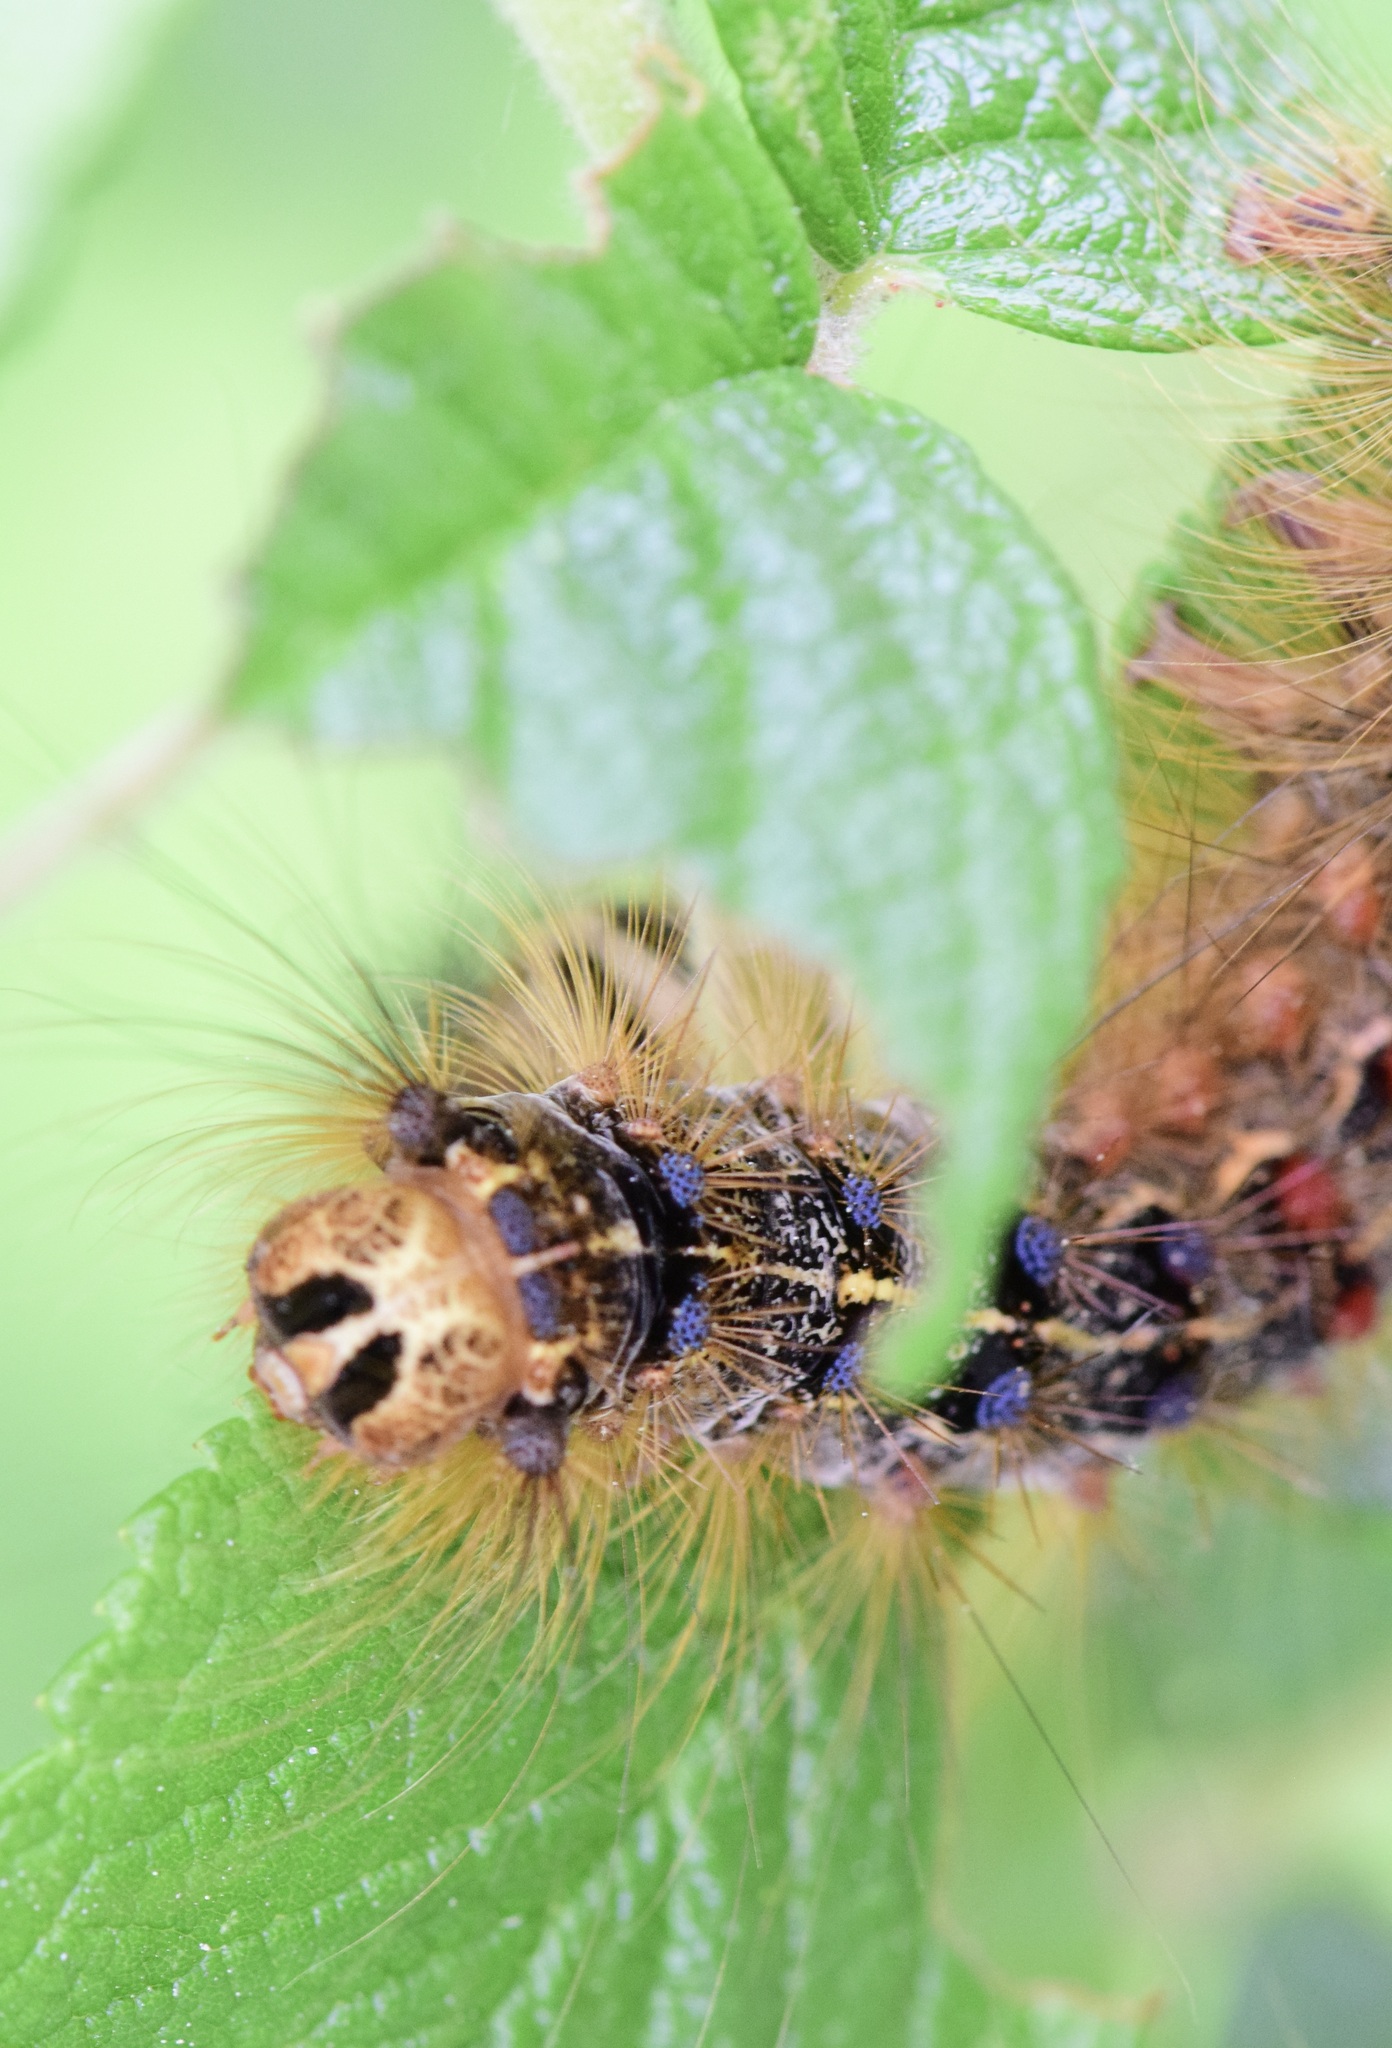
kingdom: Animalia
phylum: Arthropoda
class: Insecta
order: Lepidoptera
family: Erebidae
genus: Lymantria
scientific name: Lymantria dispar
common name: Gypsy moth
